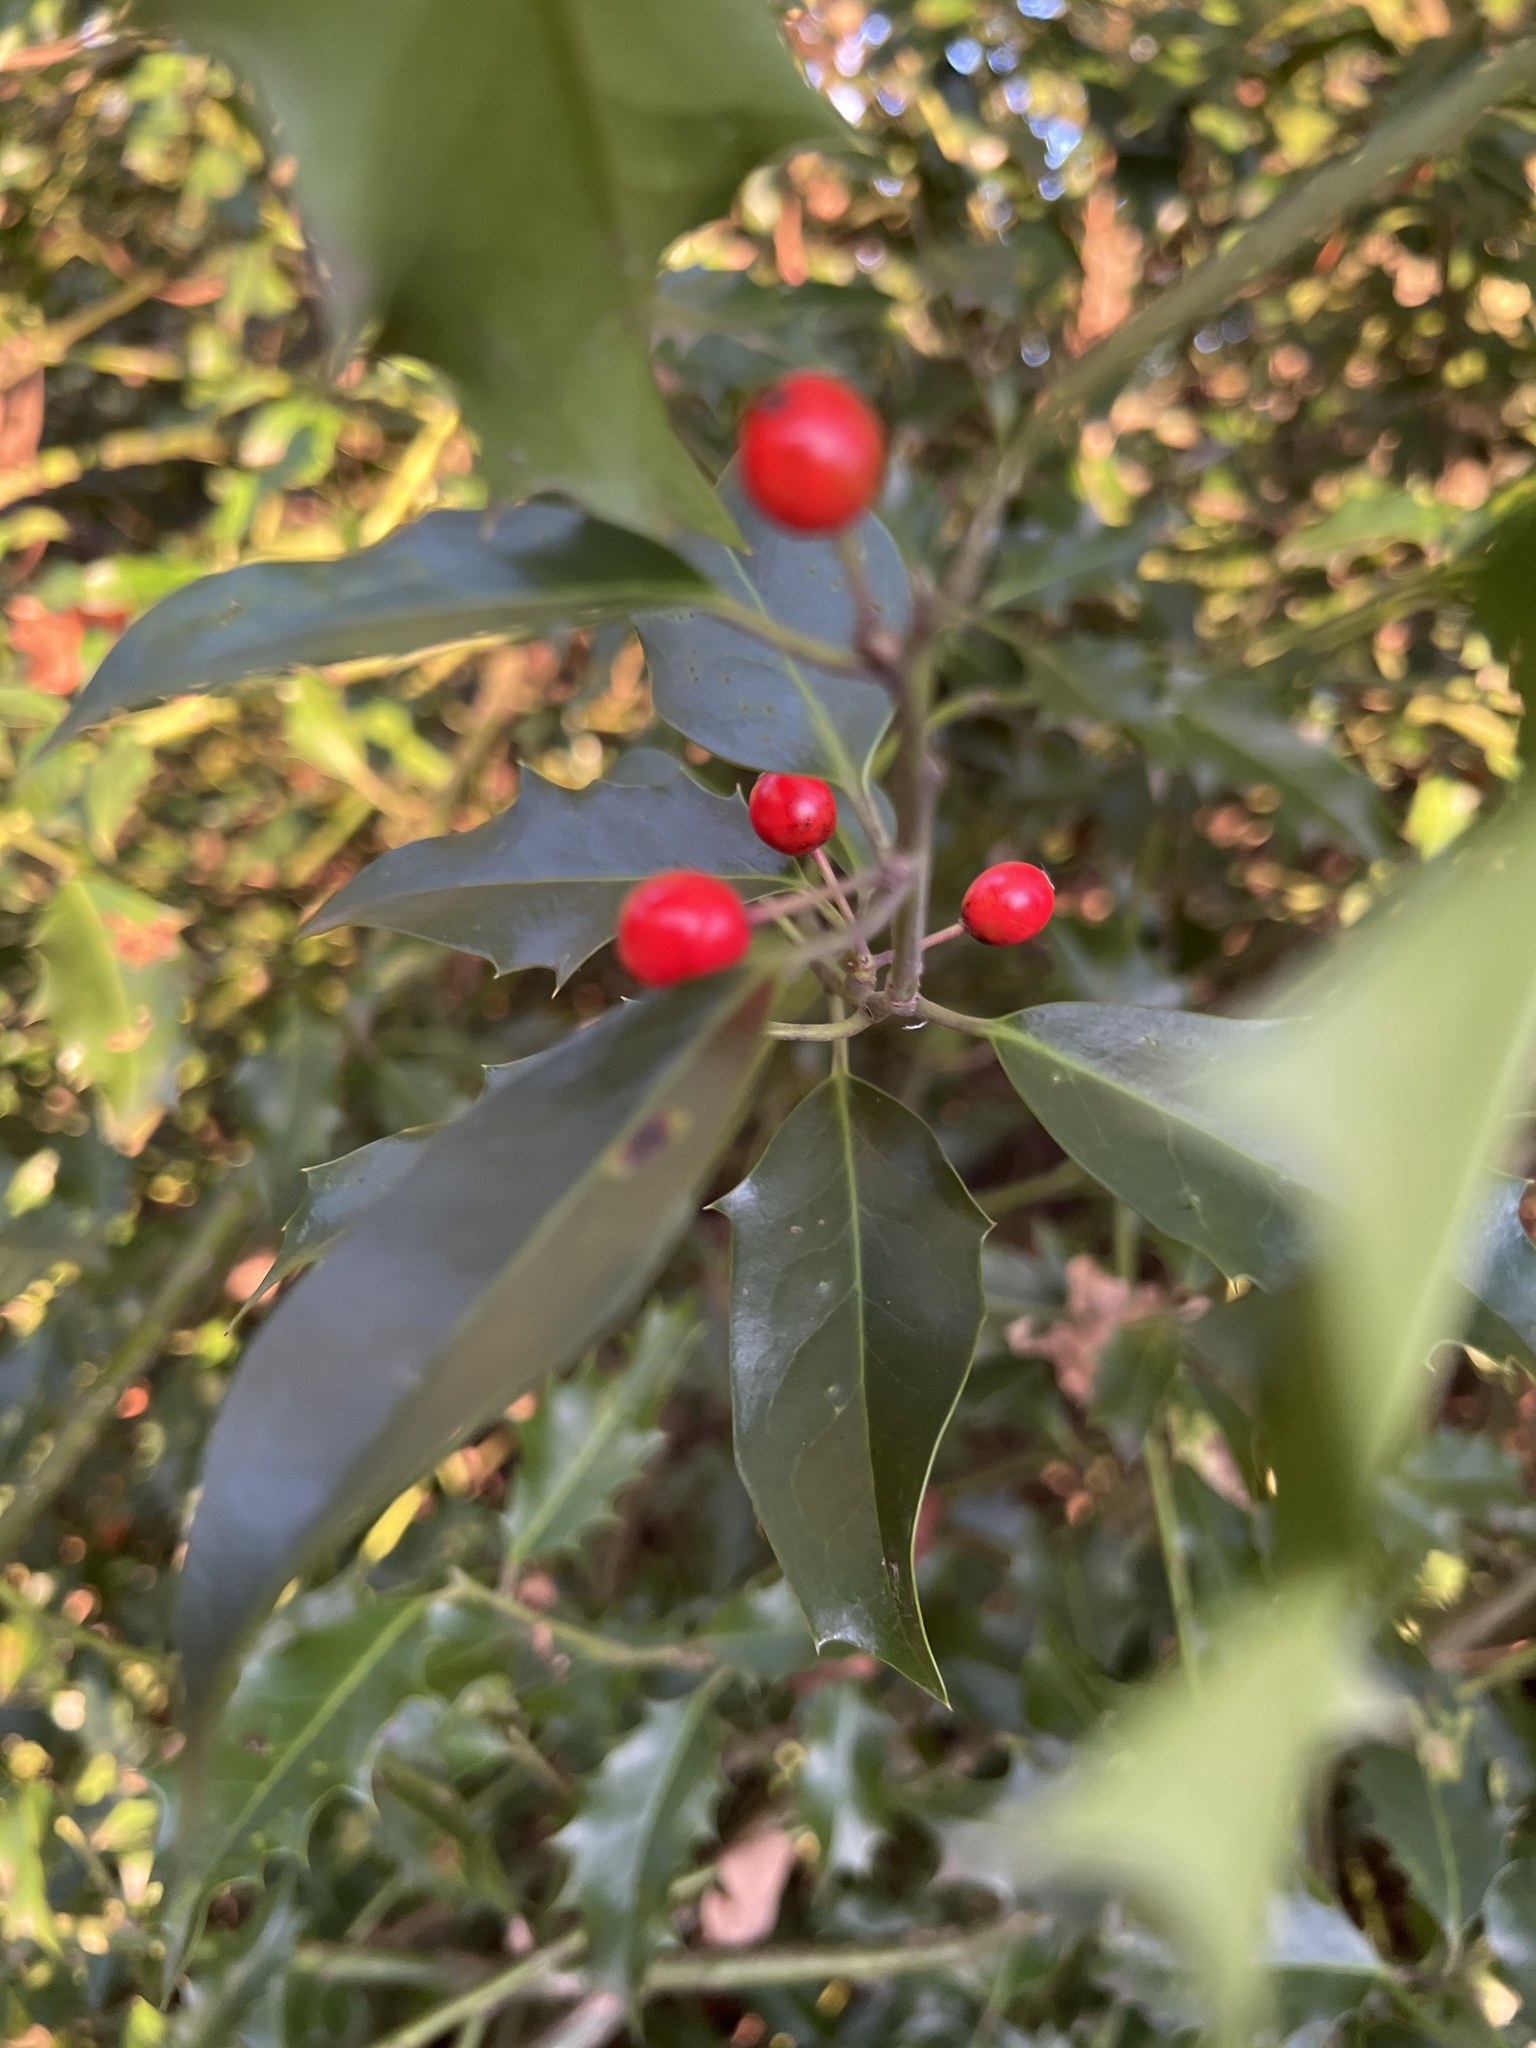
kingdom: Plantae
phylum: Tracheophyta
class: Magnoliopsida
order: Aquifoliales
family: Aquifoliaceae
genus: Ilex
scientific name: Ilex aquifolium
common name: English holly
